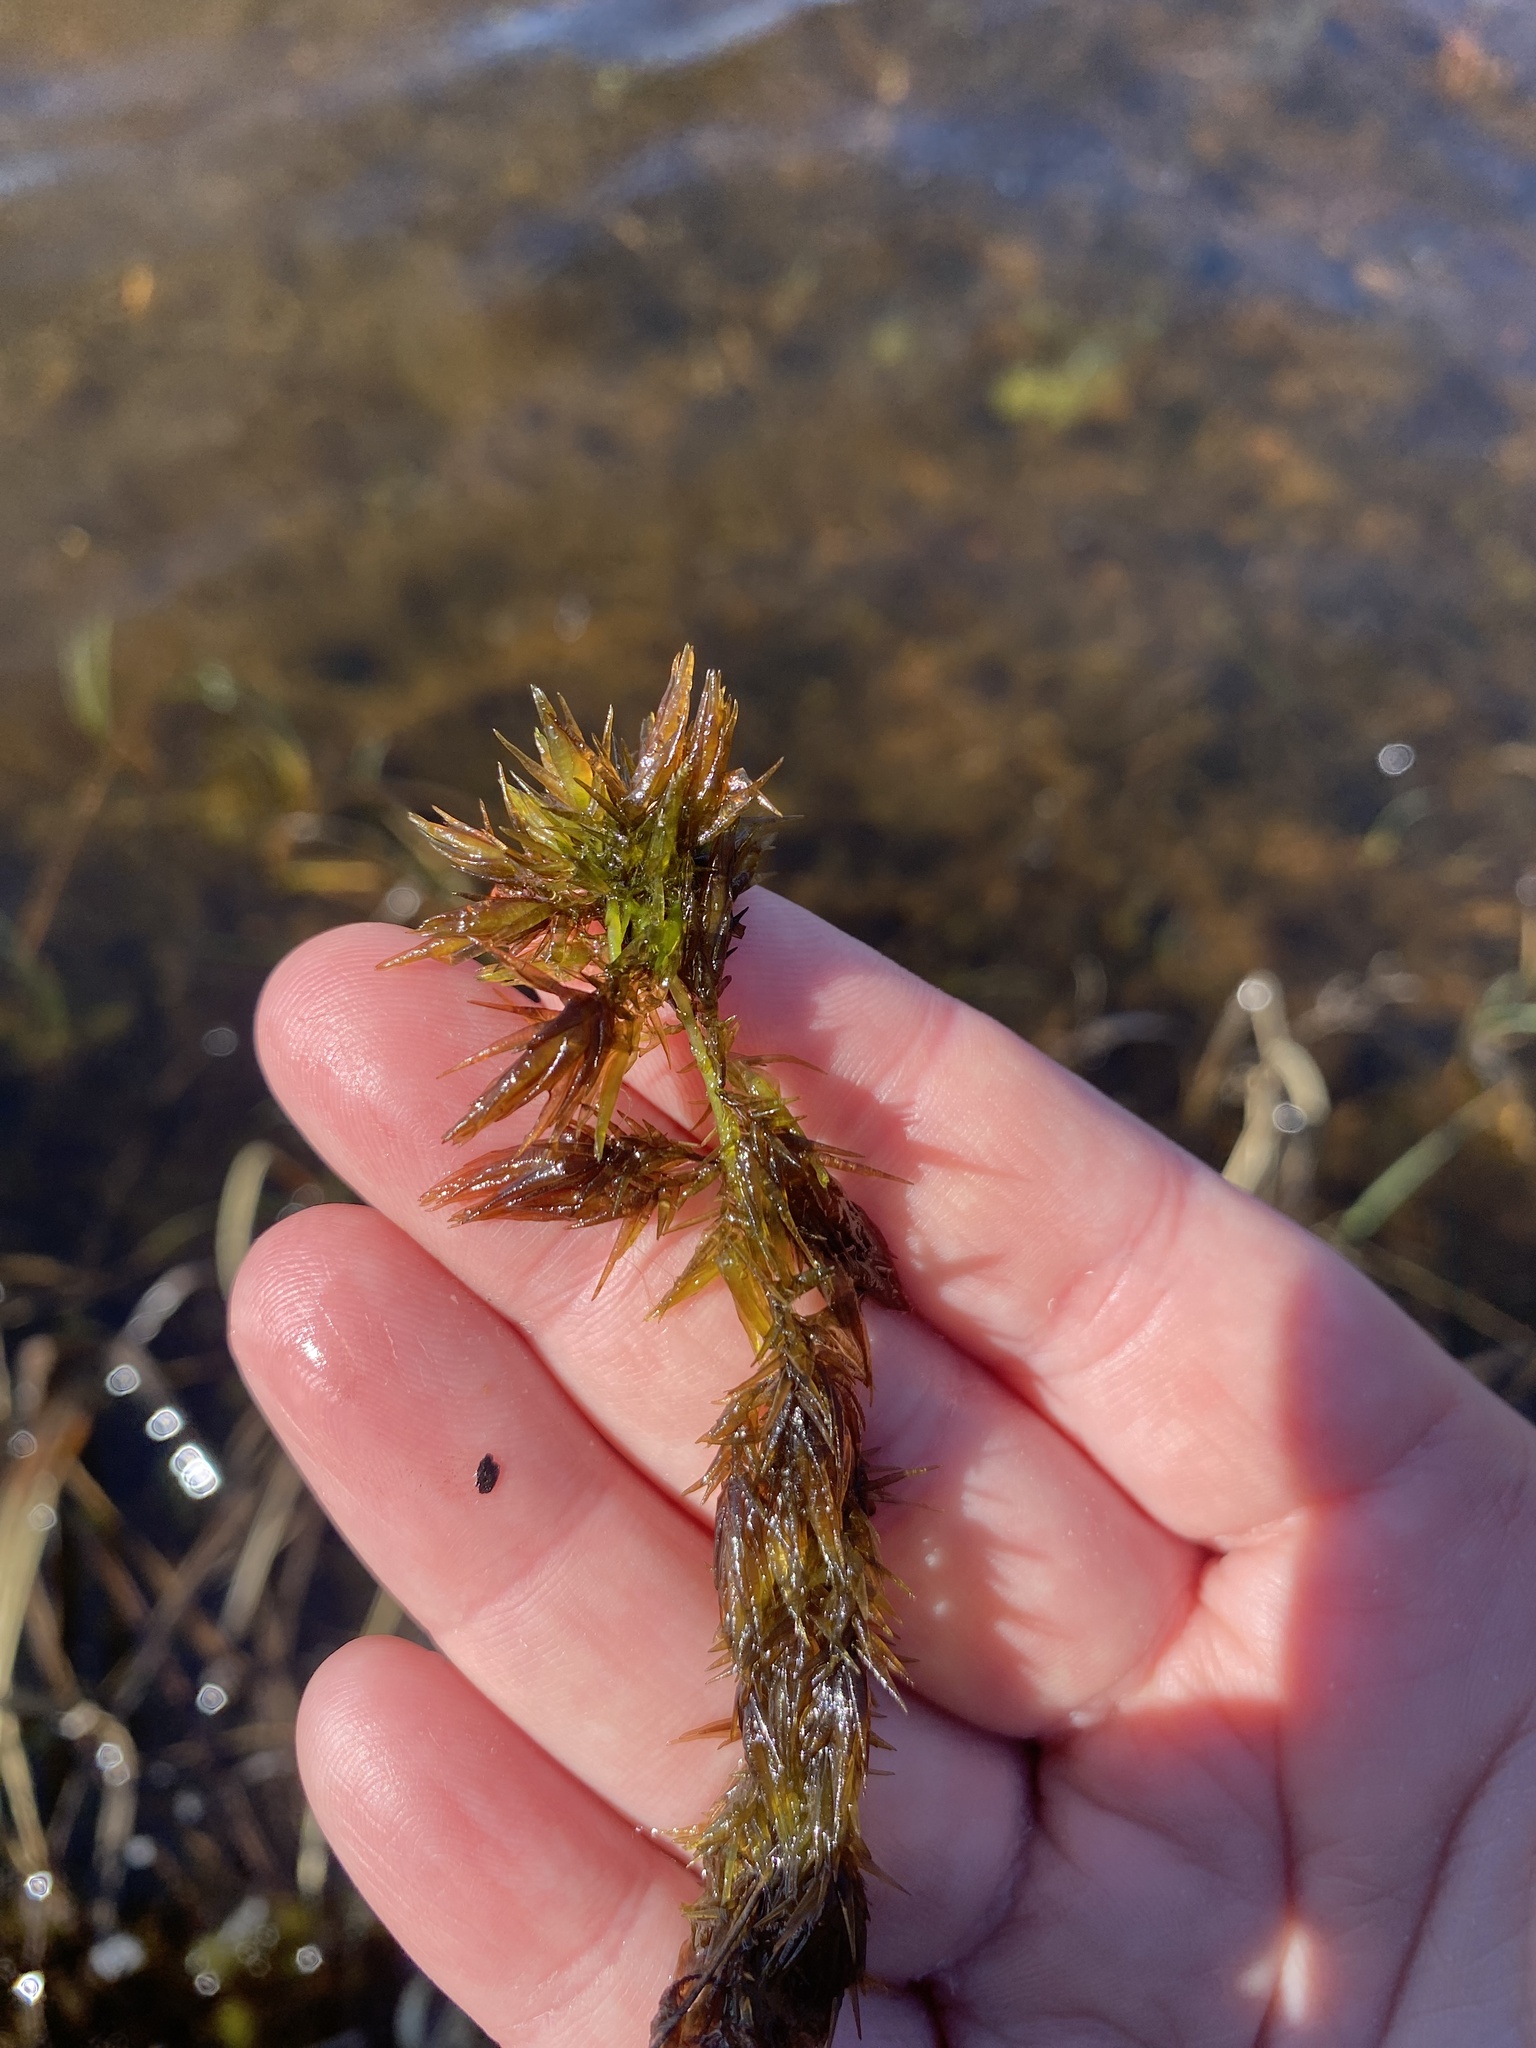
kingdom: Plantae
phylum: Bryophyta
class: Sphagnopsida
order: Sphagnales
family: Sphagnaceae
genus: Sphagnum
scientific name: Sphagnum macrophyllum
